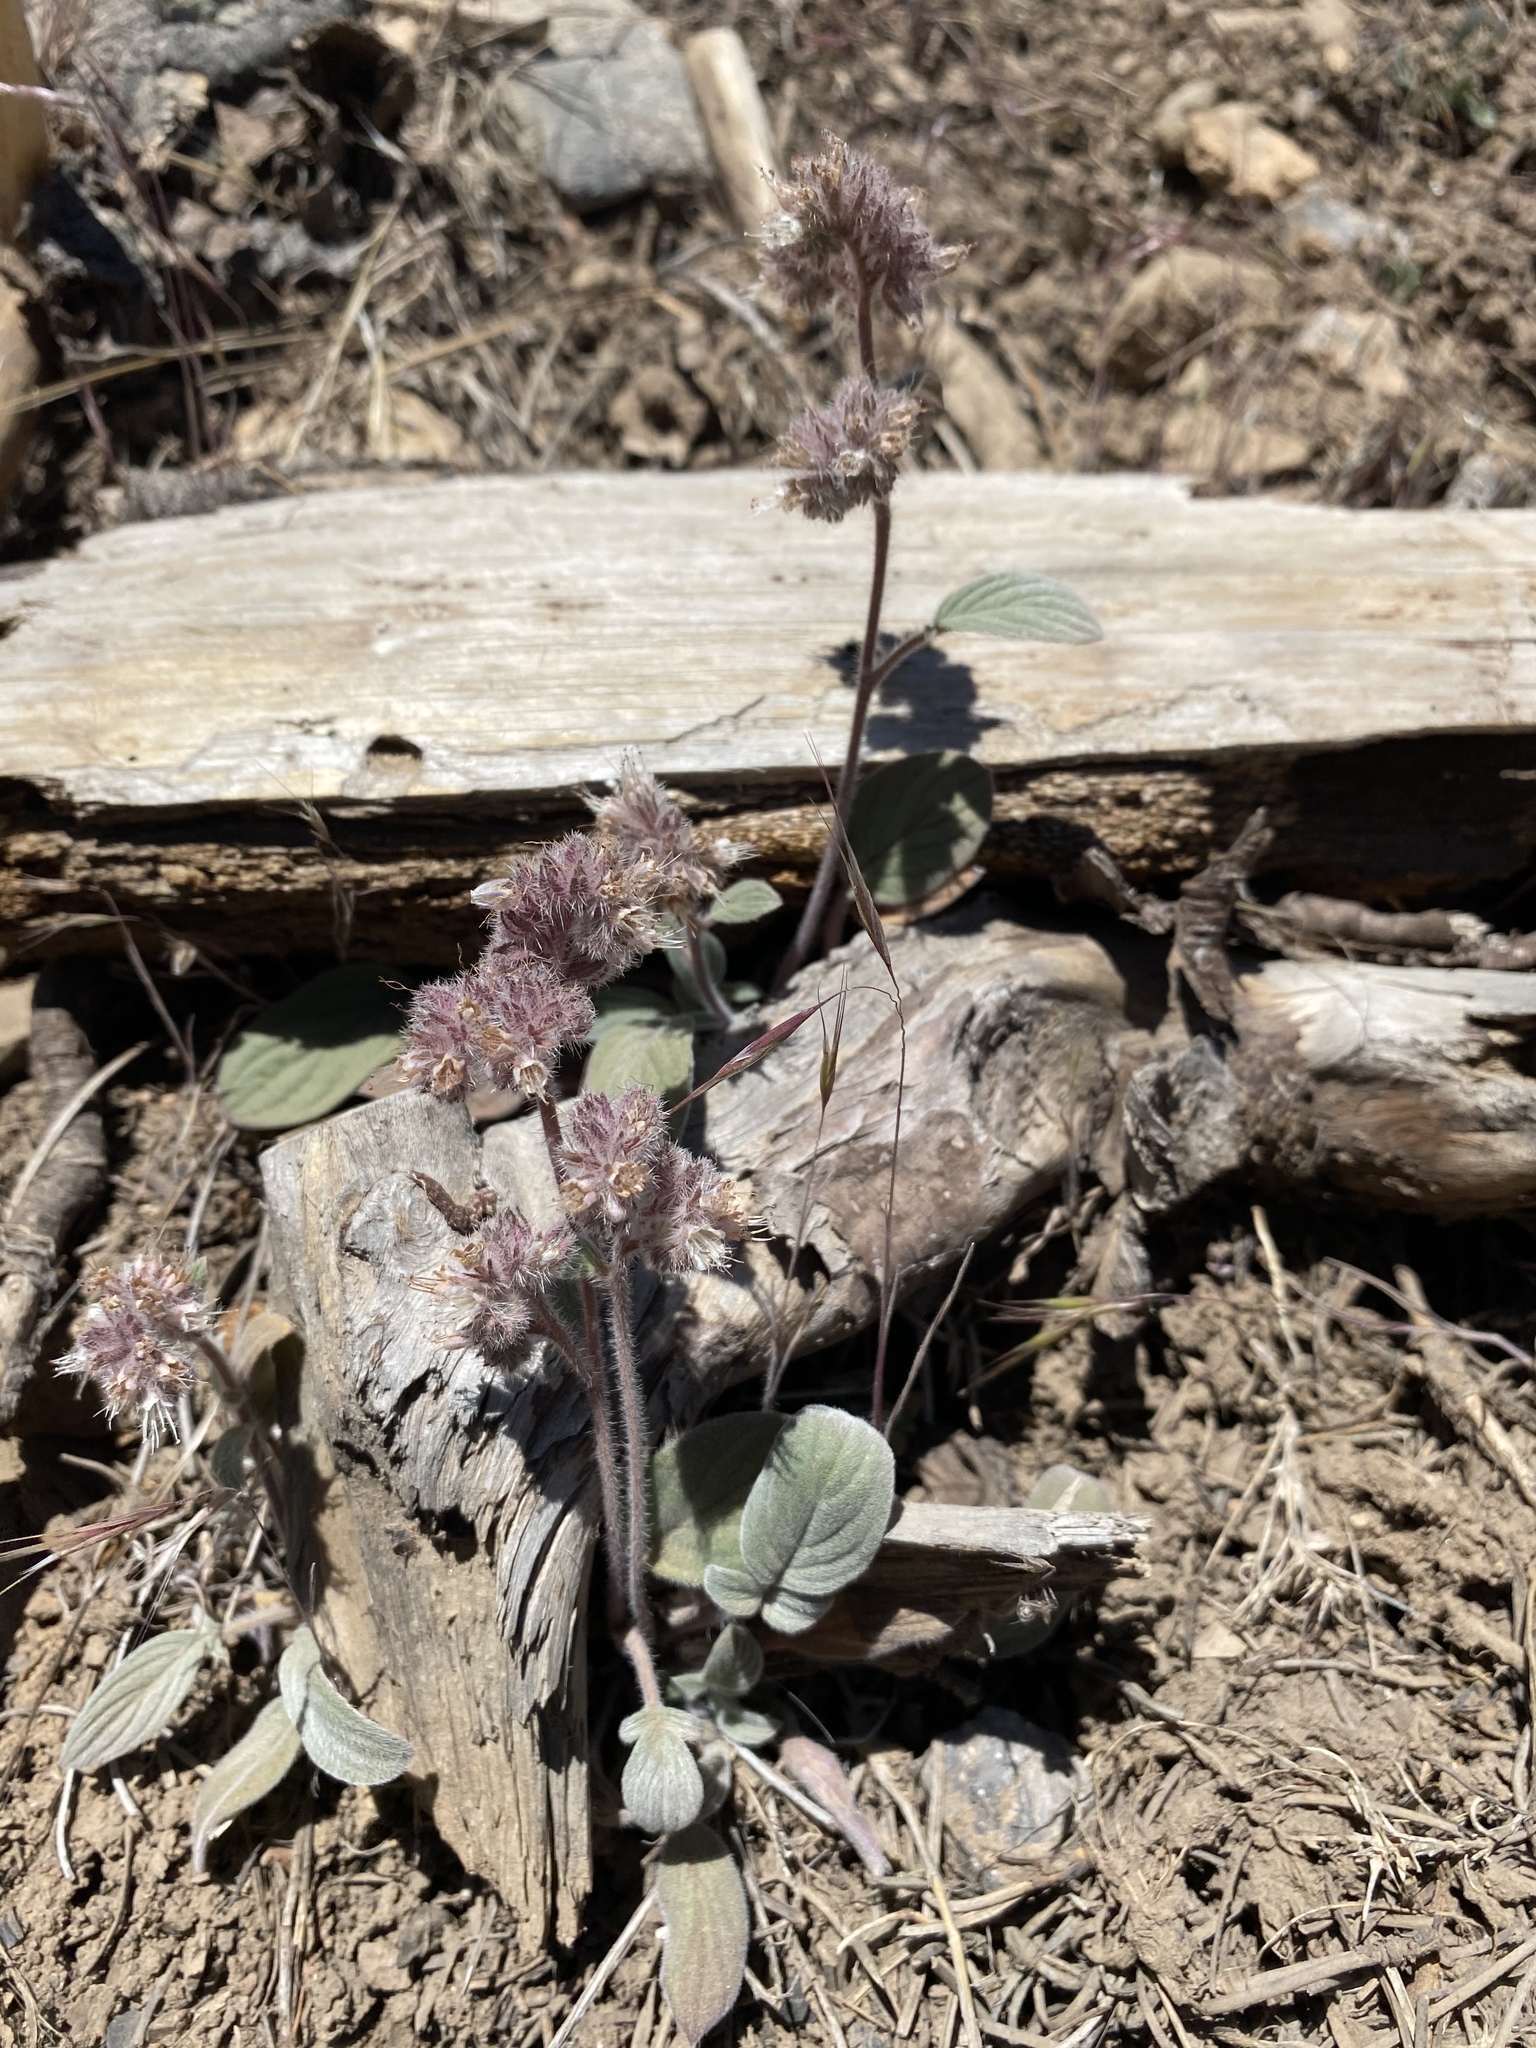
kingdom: Plantae
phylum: Tracheophyta
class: Magnoliopsida
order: Boraginales
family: Hydrophyllaceae
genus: Phacelia
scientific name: Phacelia hastata
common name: Silver-leaved phacelia
